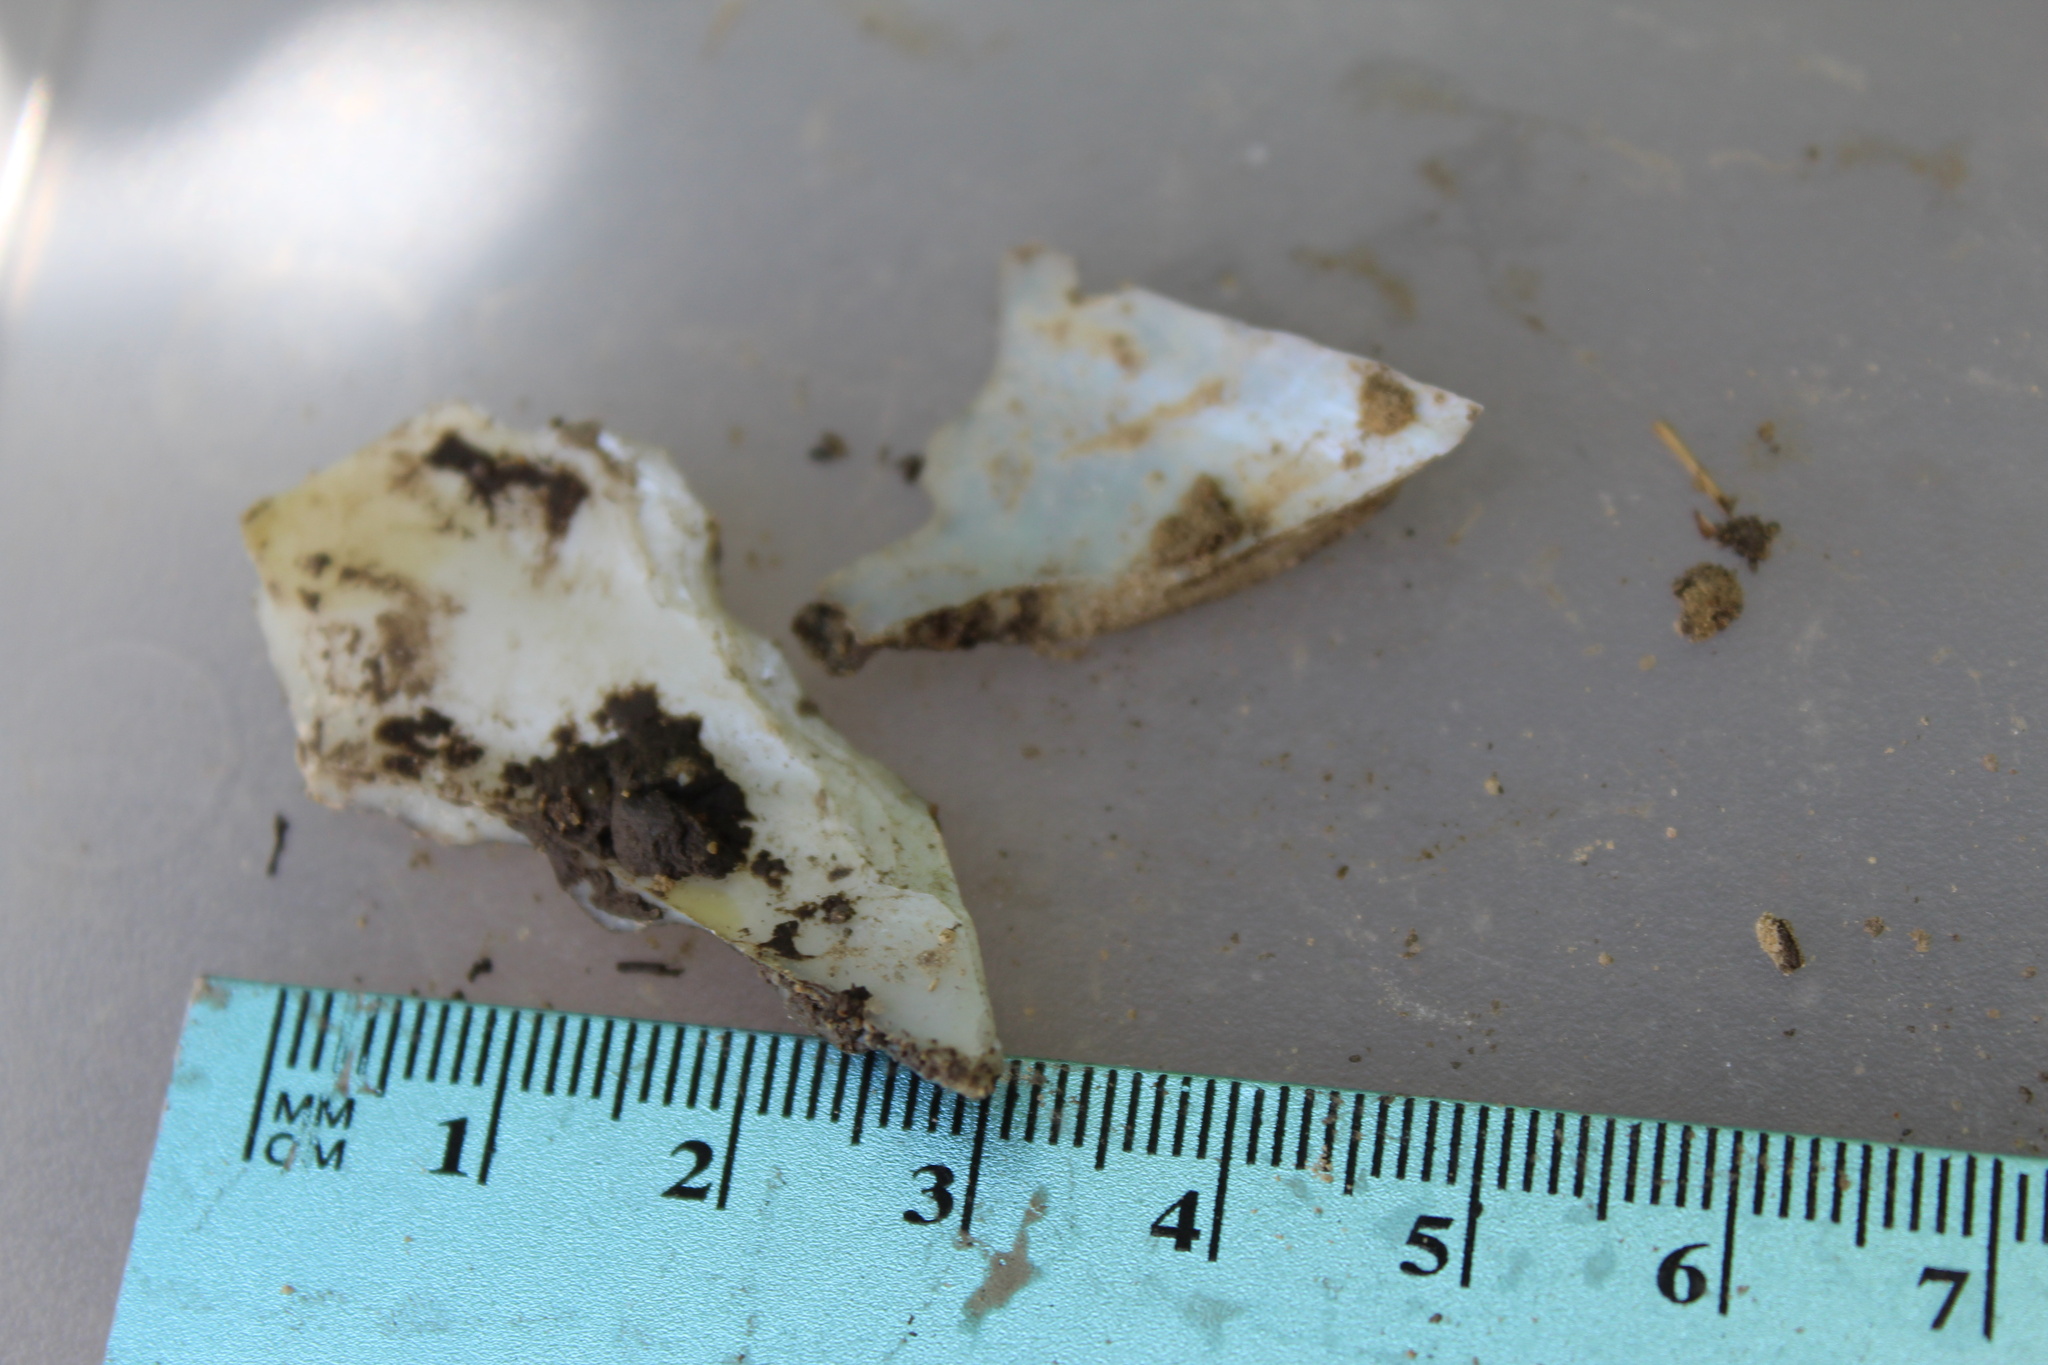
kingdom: Animalia
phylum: Mollusca
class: Bivalvia
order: Unionida
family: Unionidae
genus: Quadrula
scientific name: Quadrula quadrula
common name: Mapleleaf
